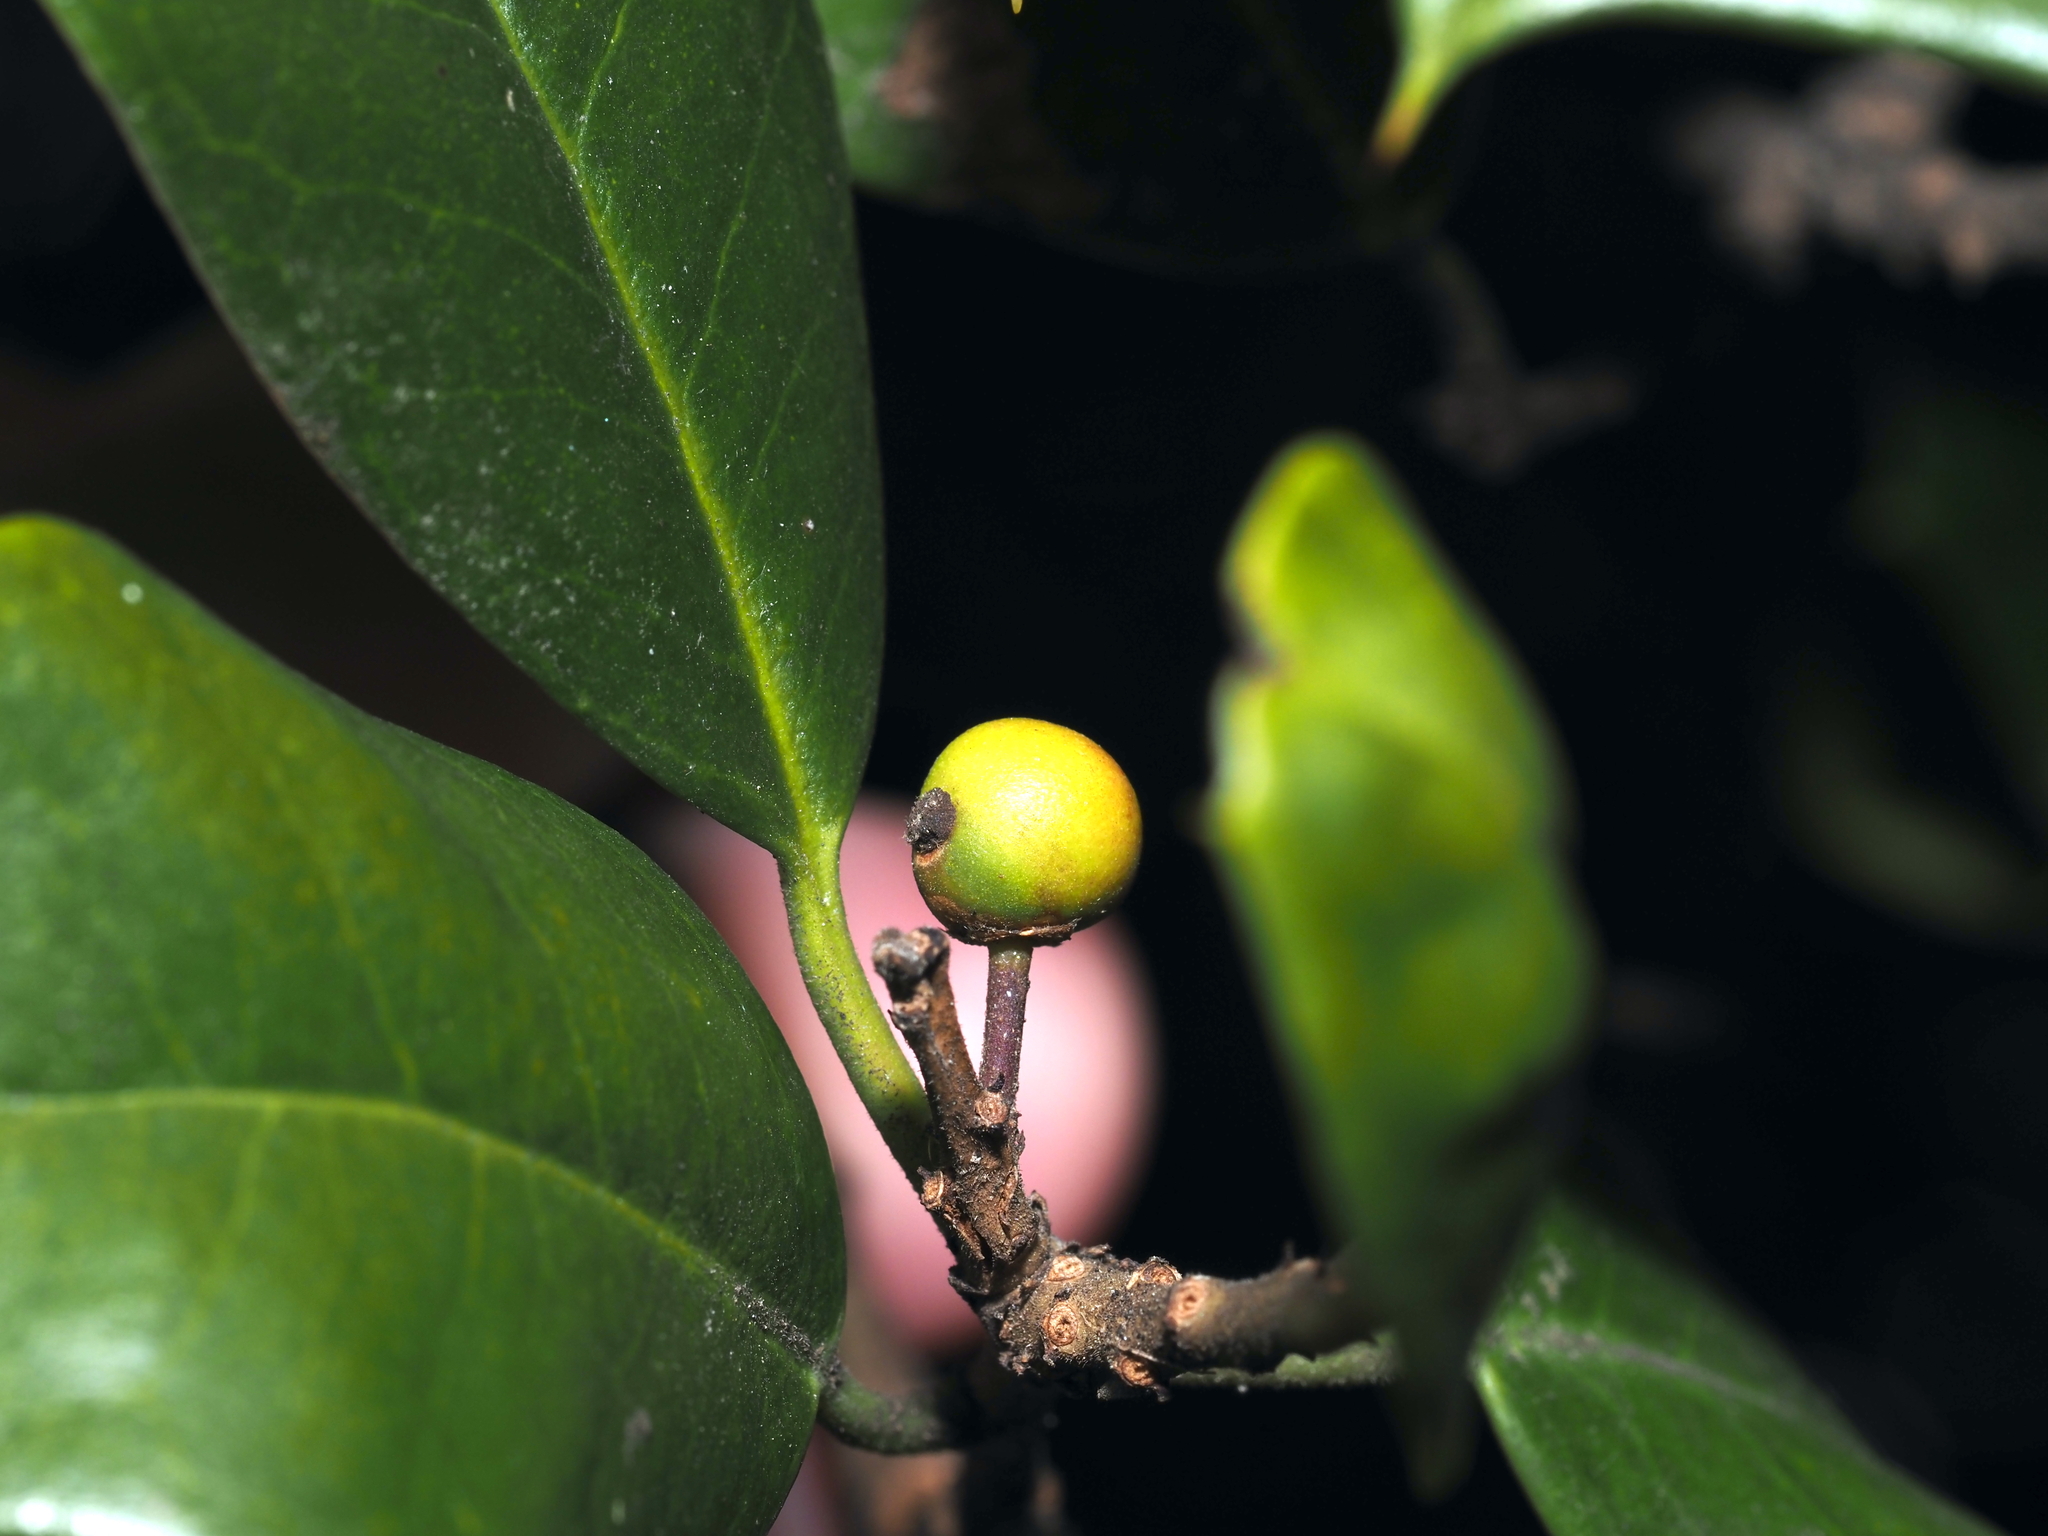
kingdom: Animalia
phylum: Arthropoda
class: Insecta
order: Diptera
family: Cecidomyiidae
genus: Asphondylia
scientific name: Asphondylia ilicicola
